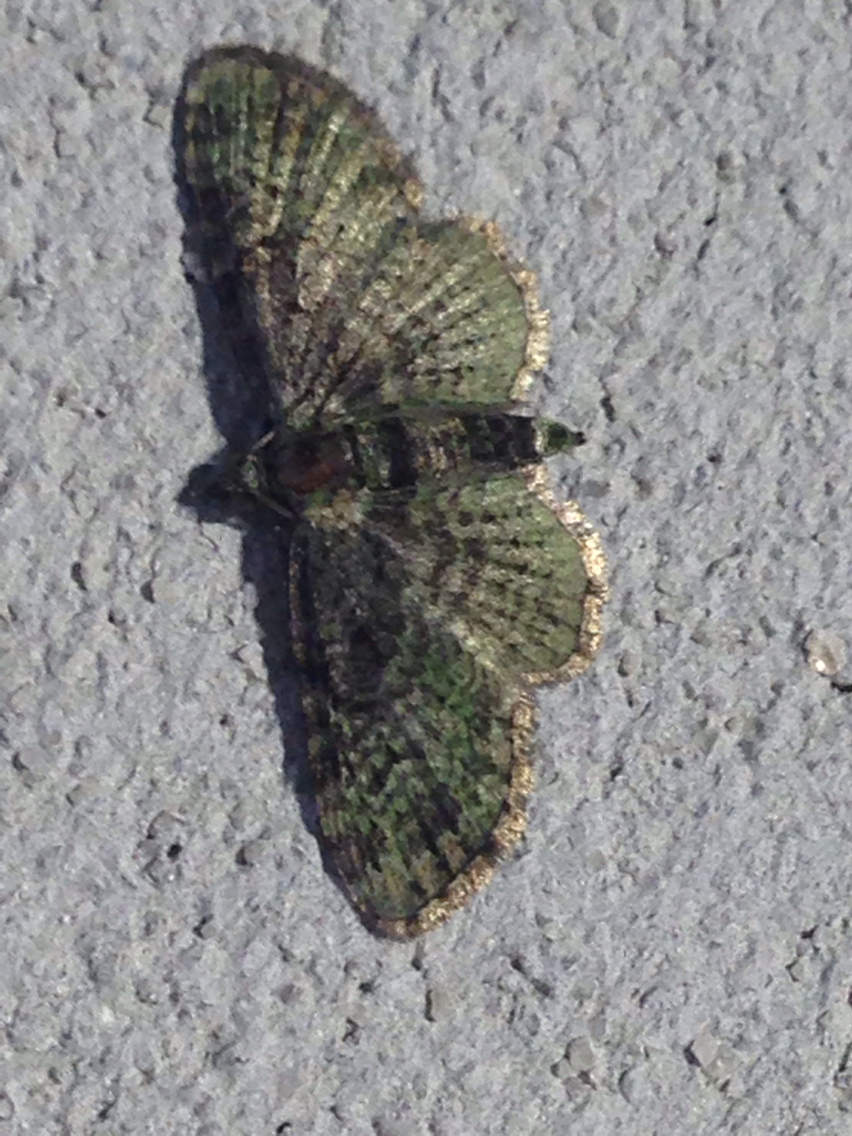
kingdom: Animalia
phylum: Arthropoda
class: Insecta
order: Lepidoptera
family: Geometridae
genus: Pasiphila
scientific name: Pasiphila rectangulata
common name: Green pug
